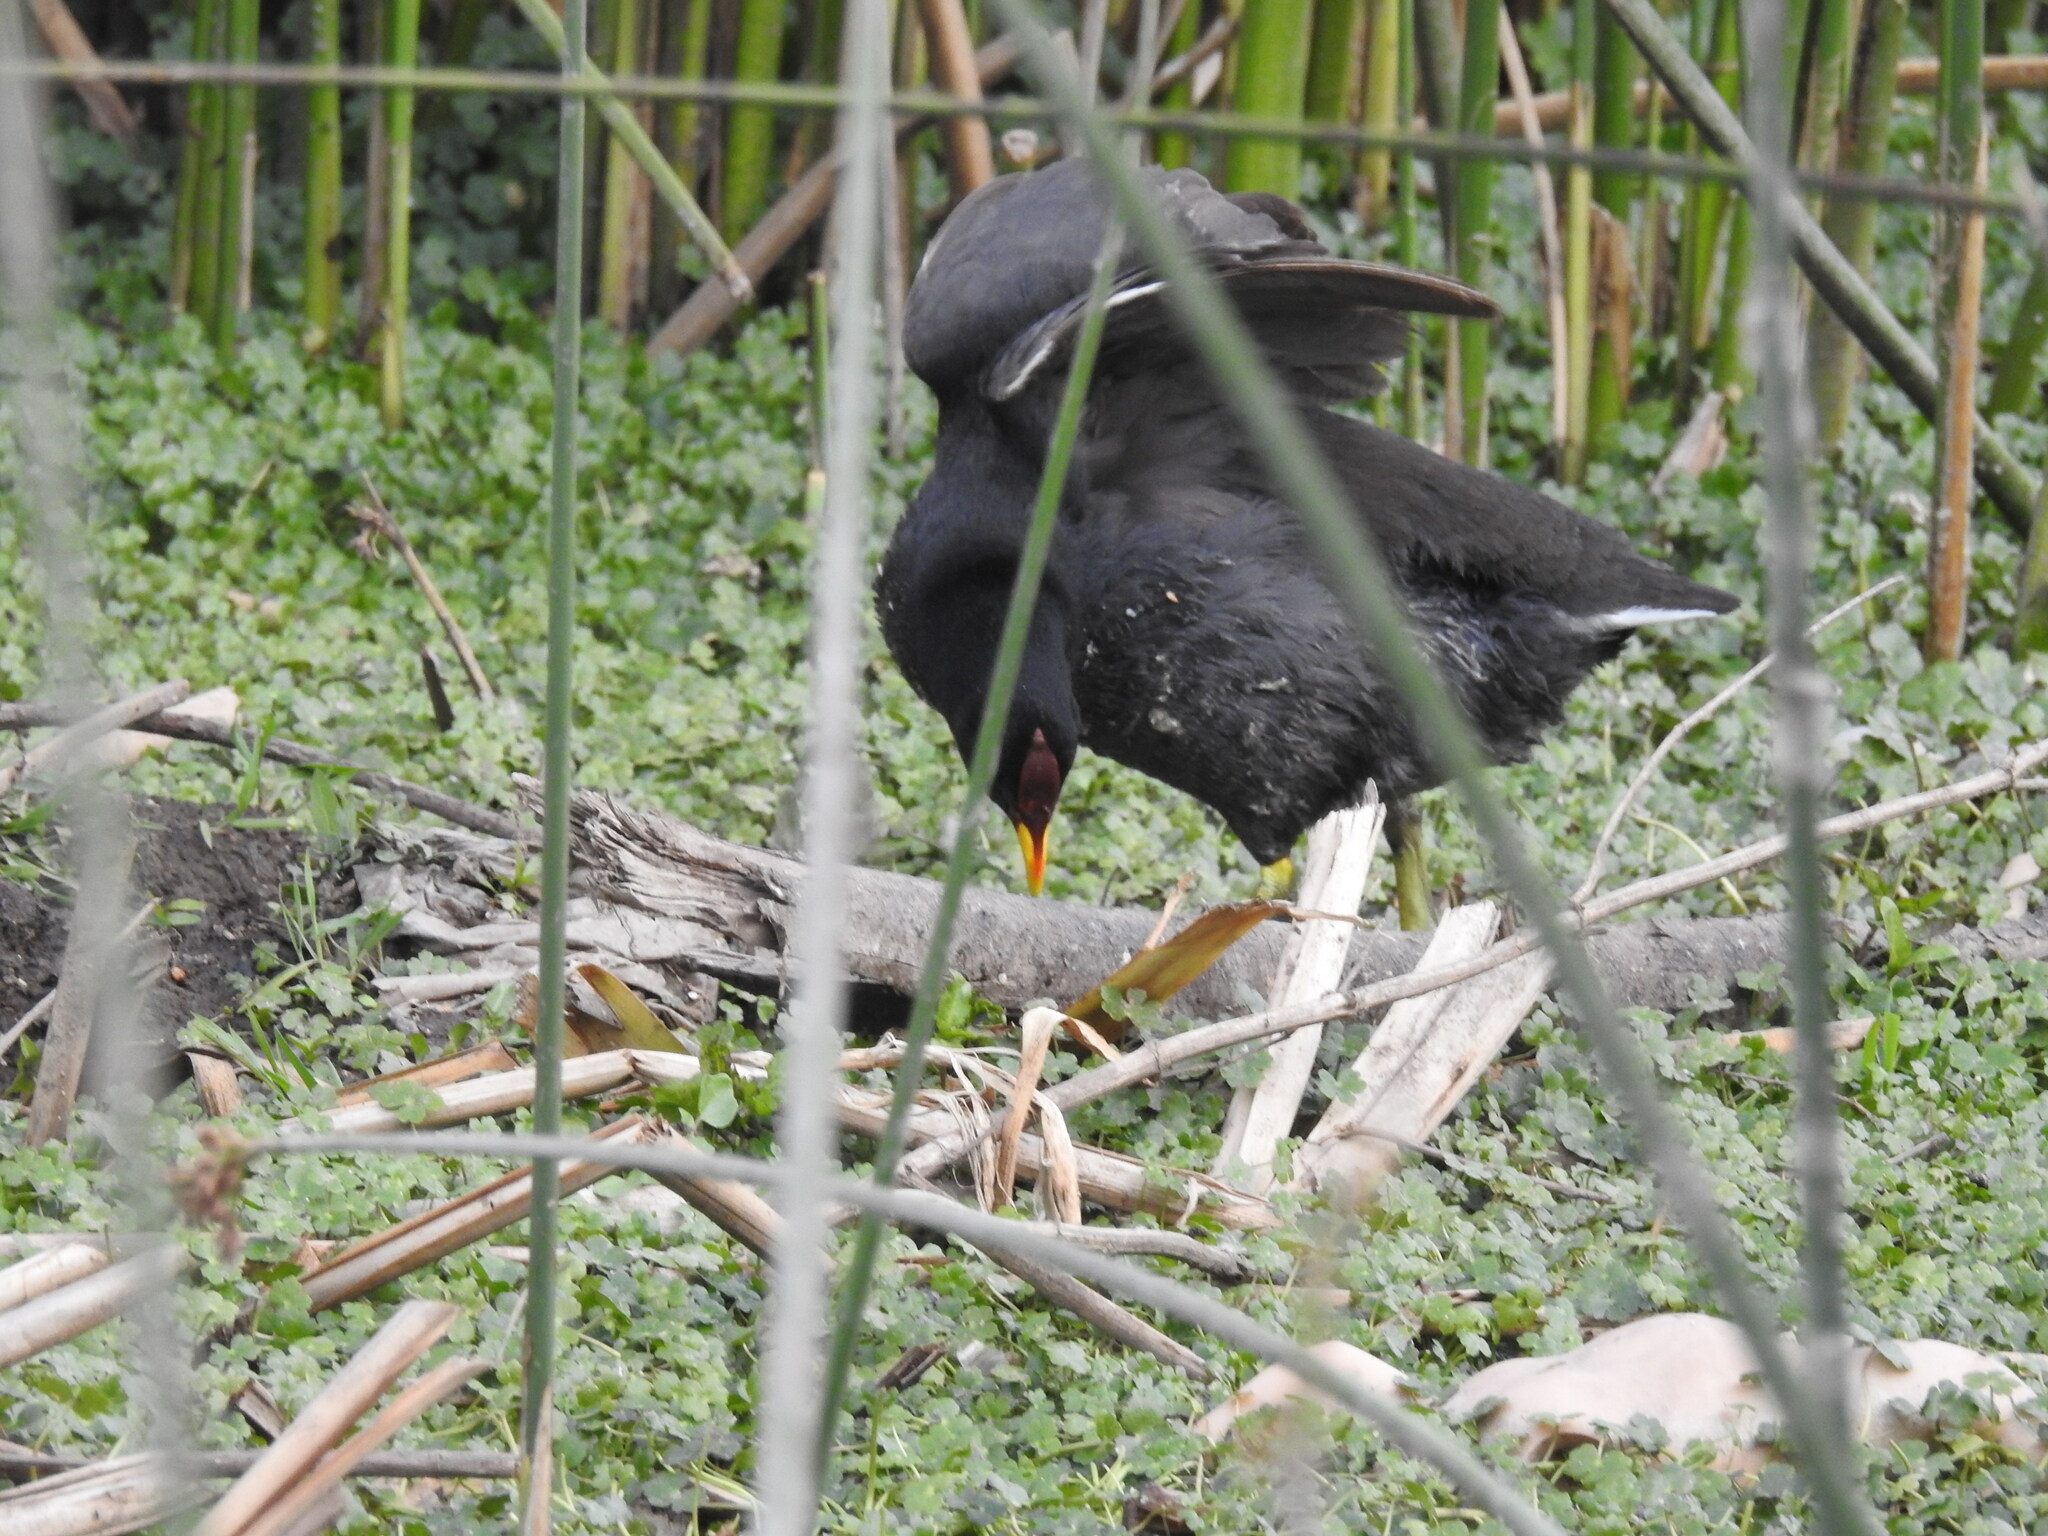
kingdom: Animalia
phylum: Chordata
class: Aves
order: Gruiformes
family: Rallidae
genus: Fulica
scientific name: Fulica rufifrons
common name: Red-fronted coot
